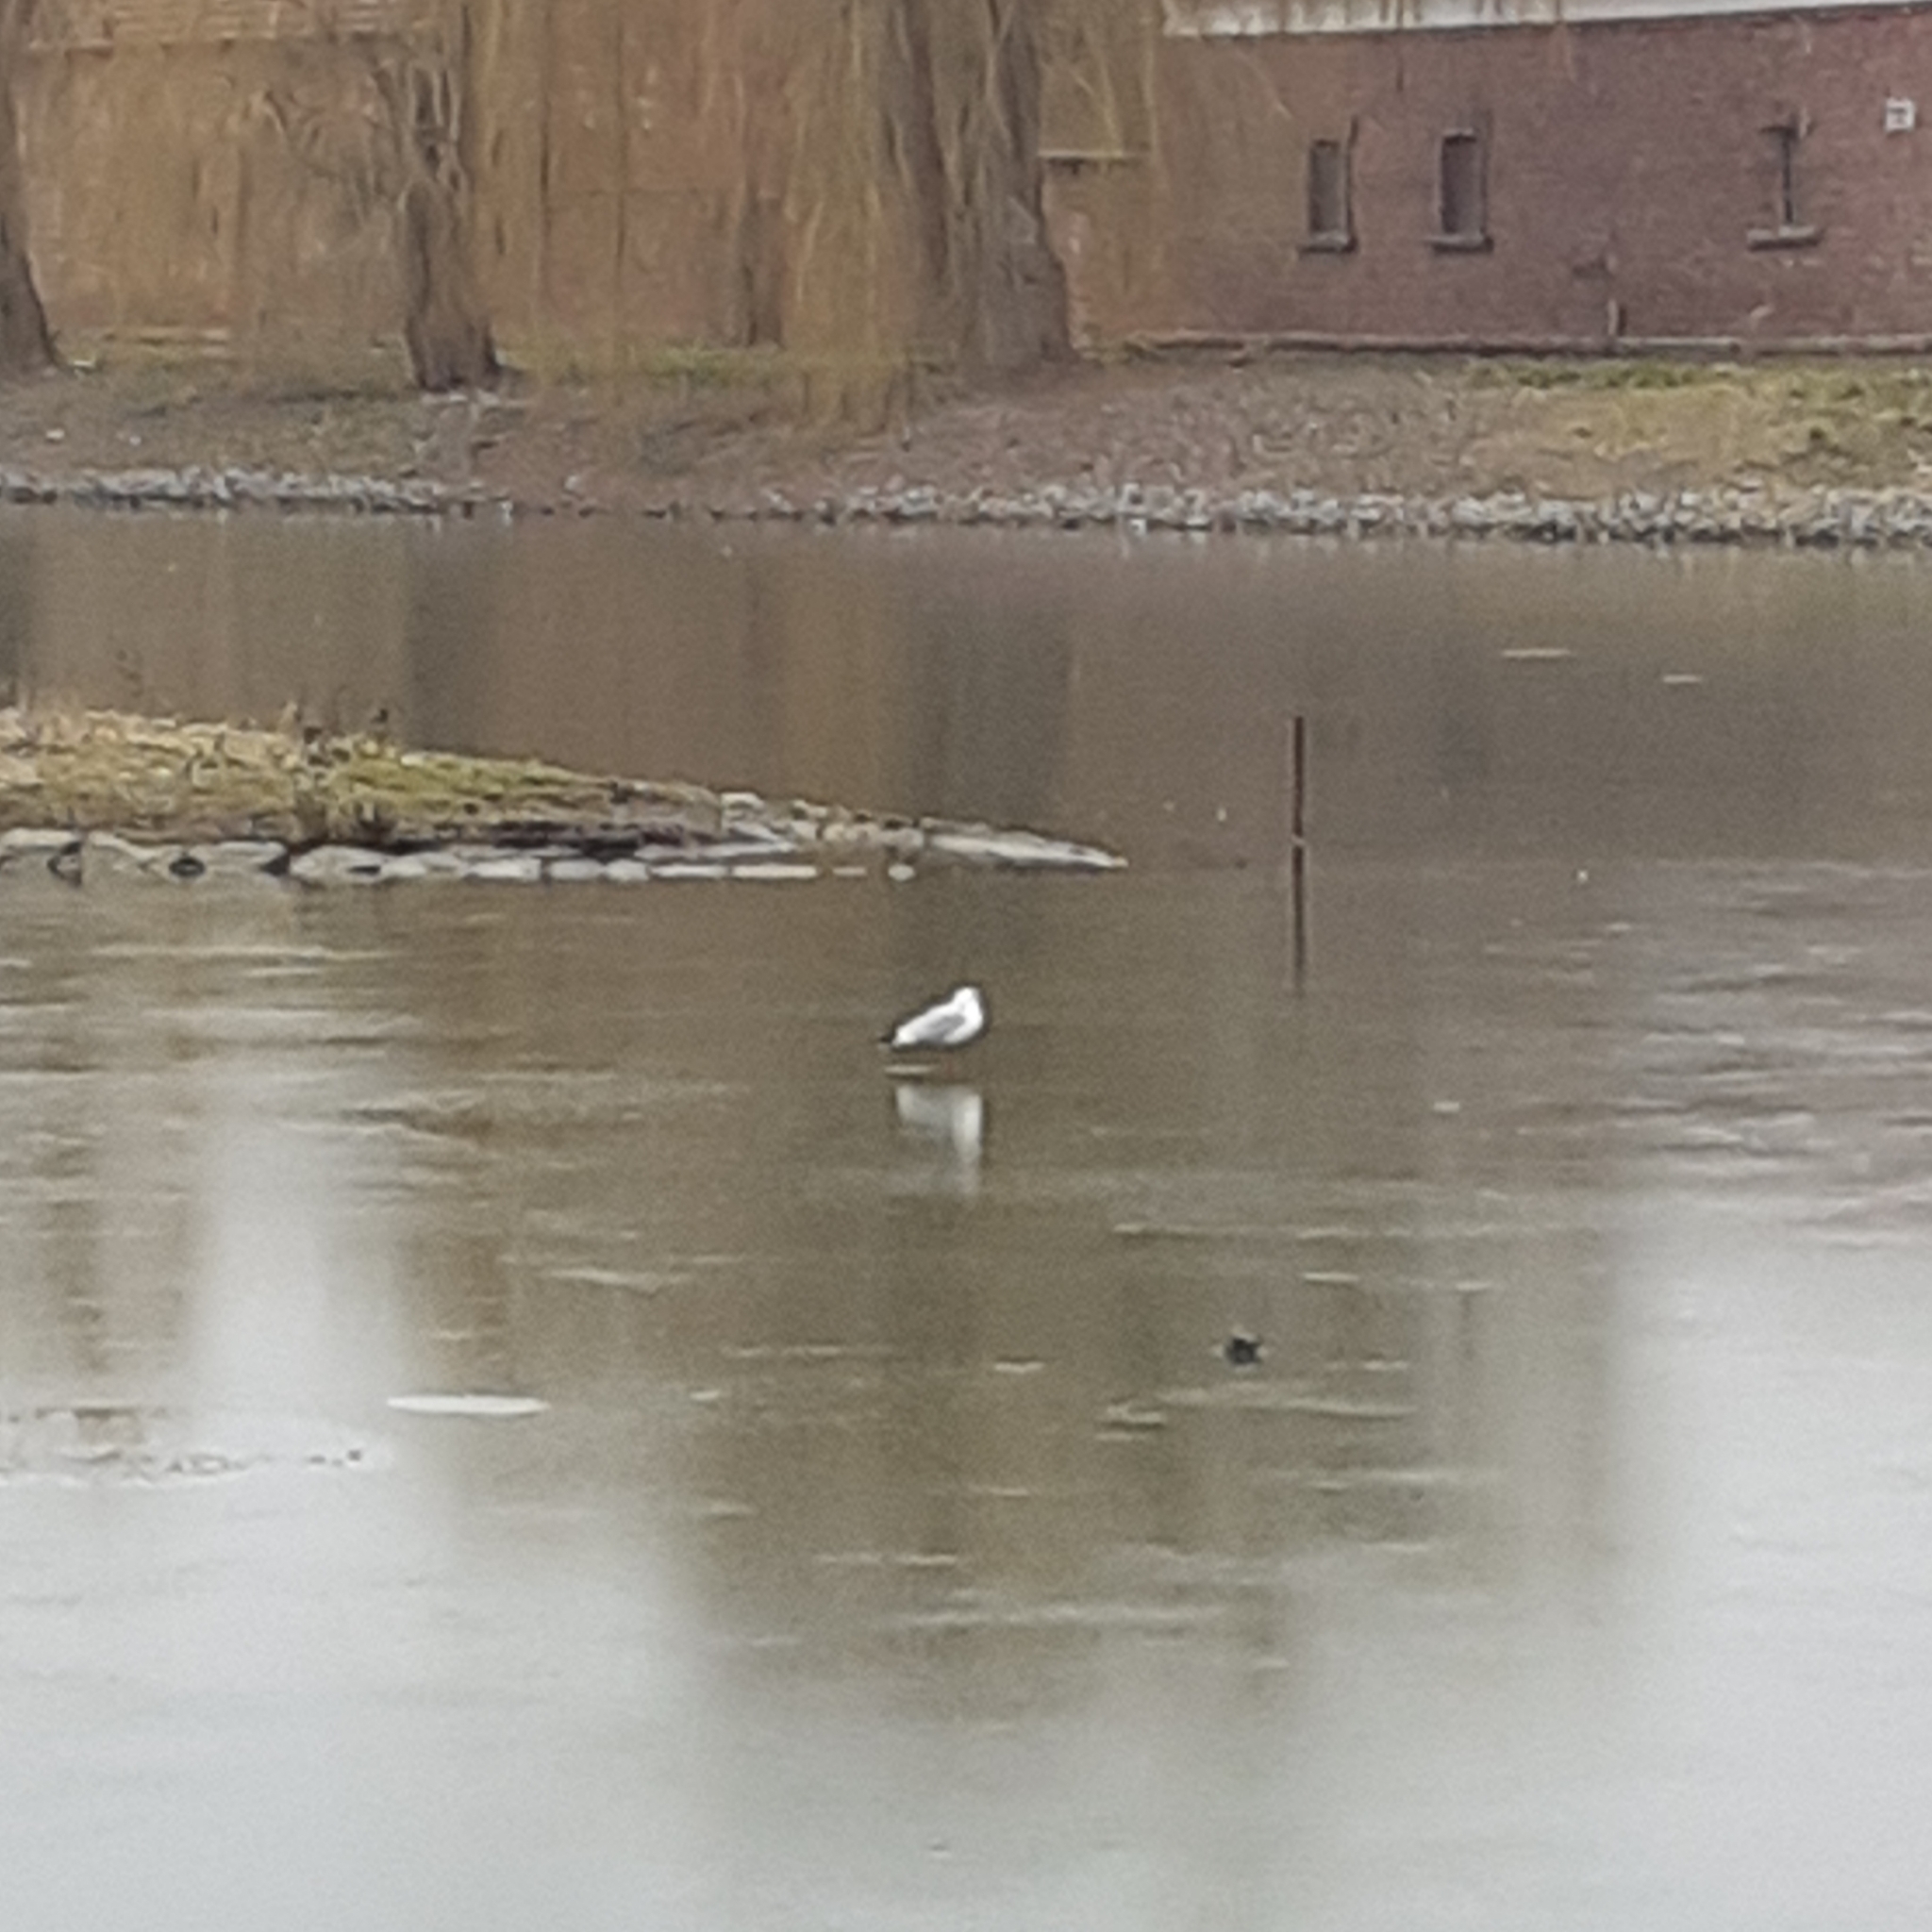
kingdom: Animalia
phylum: Chordata
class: Aves
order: Charadriiformes
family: Laridae
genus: Chroicocephalus
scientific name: Chroicocephalus ridibundus
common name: Black-headed gull
